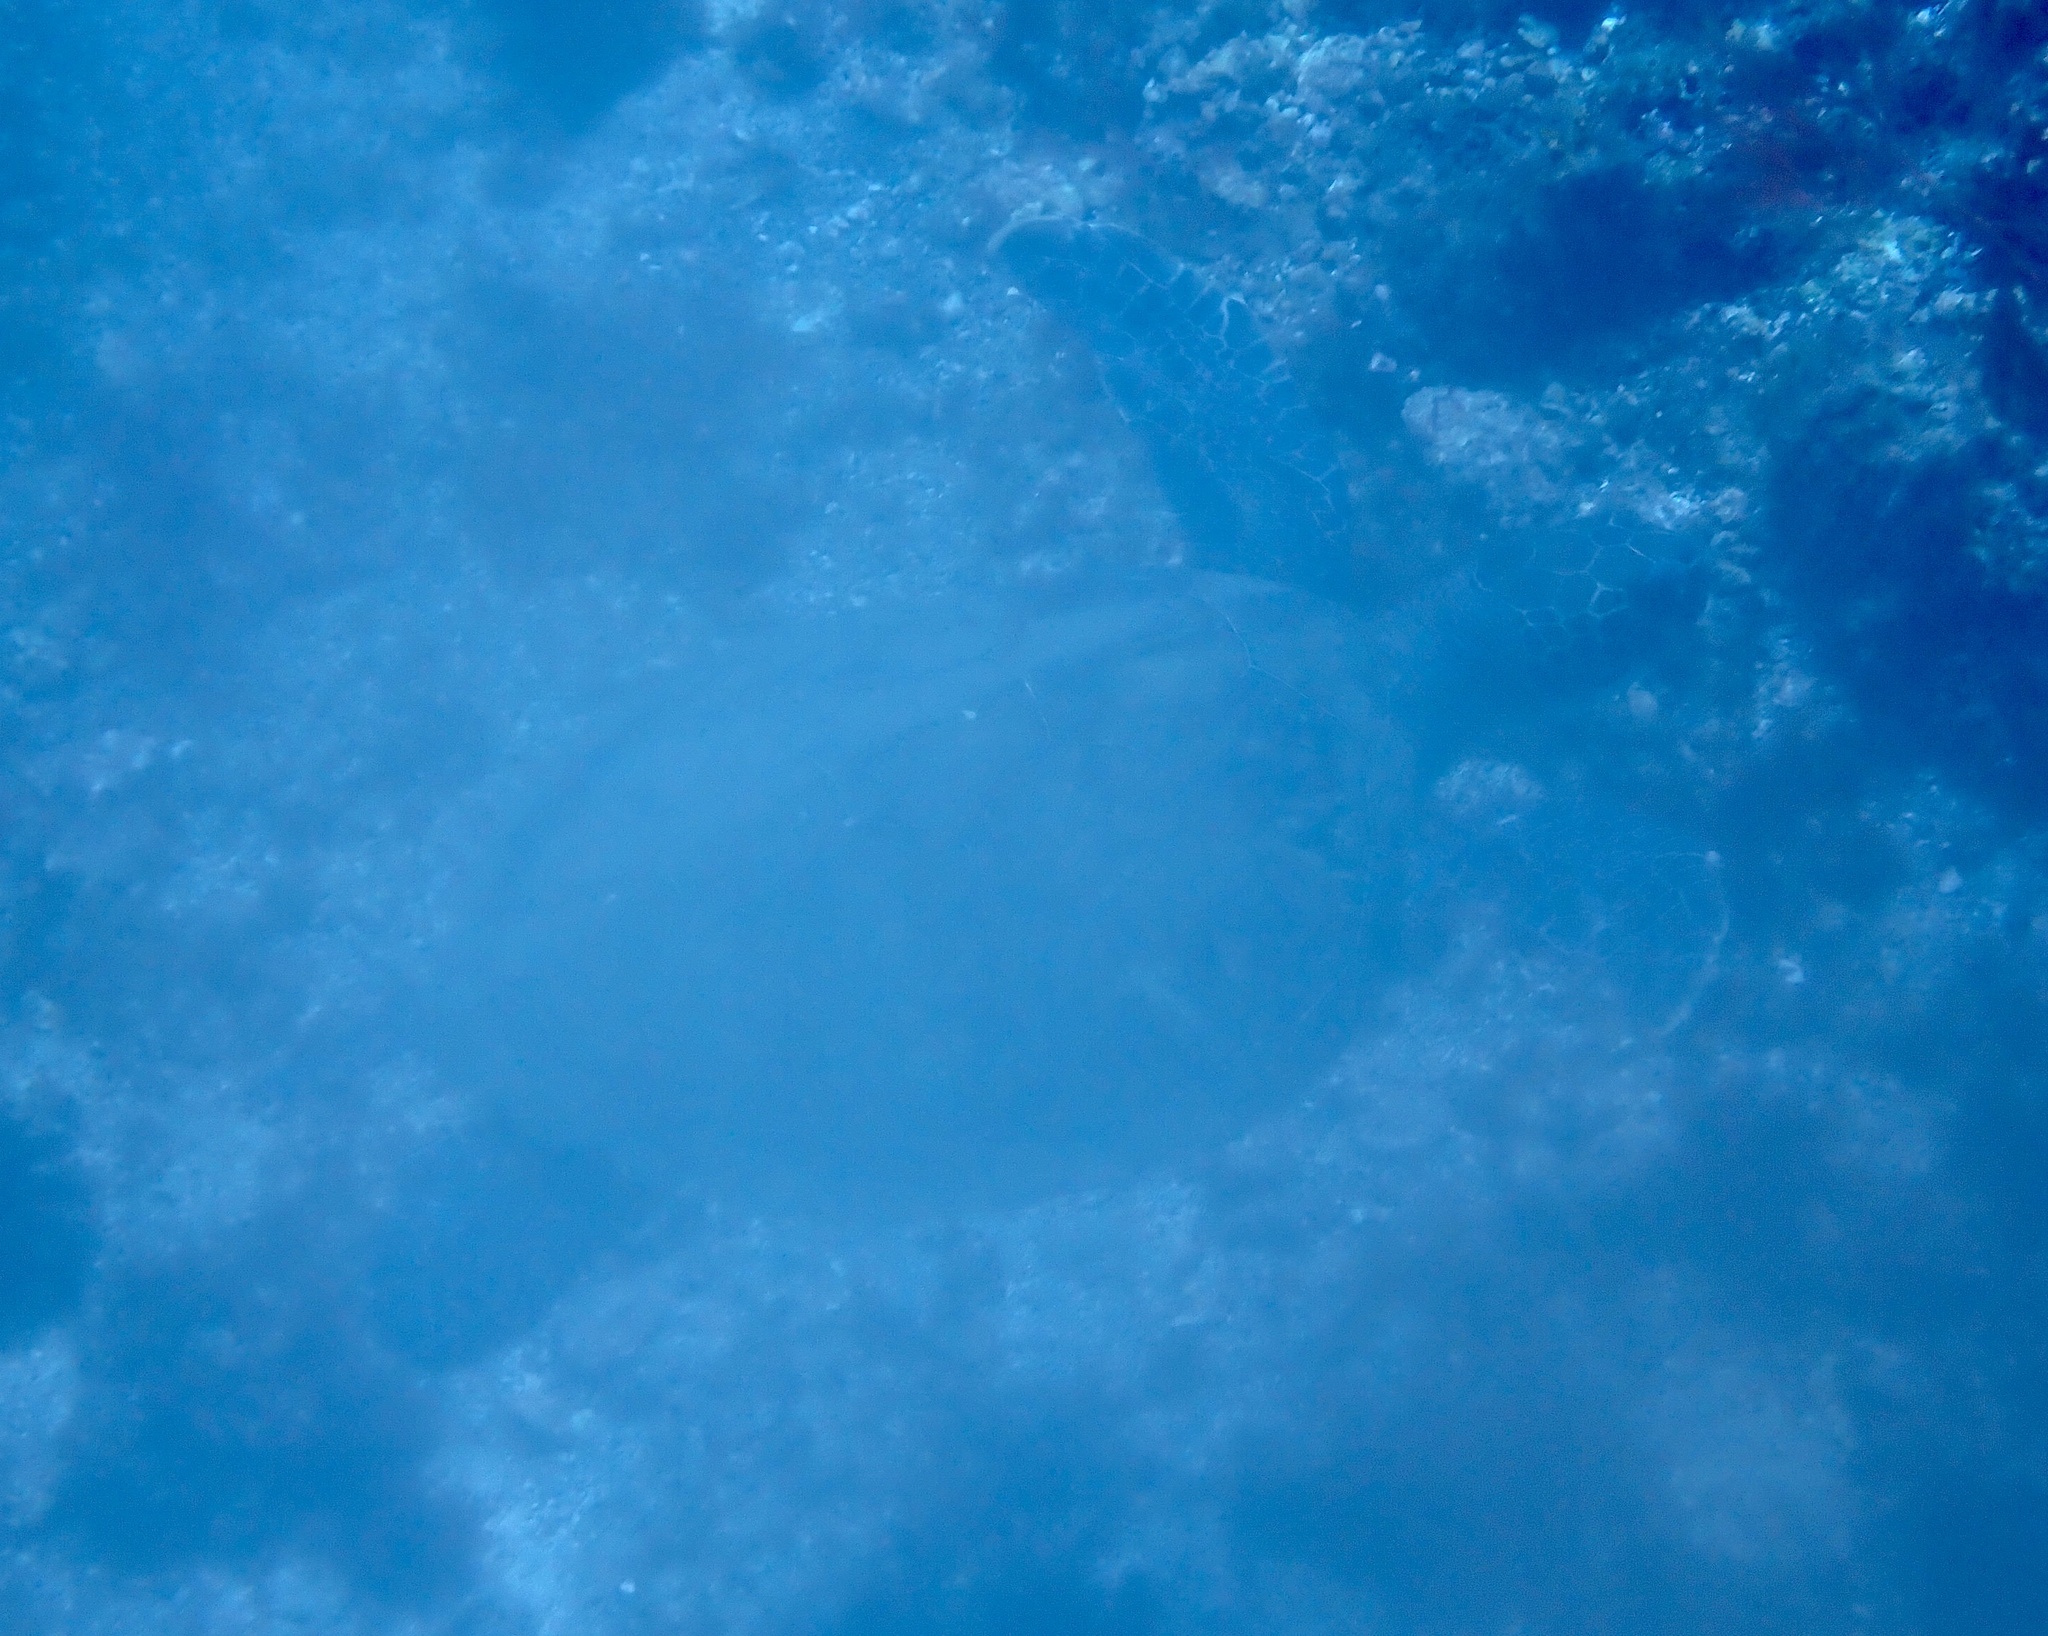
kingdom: Animalia
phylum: Chordata
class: Testudines
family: Cheloniidae
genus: Chelonia
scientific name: Chelonia mydas
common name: Green turtle
